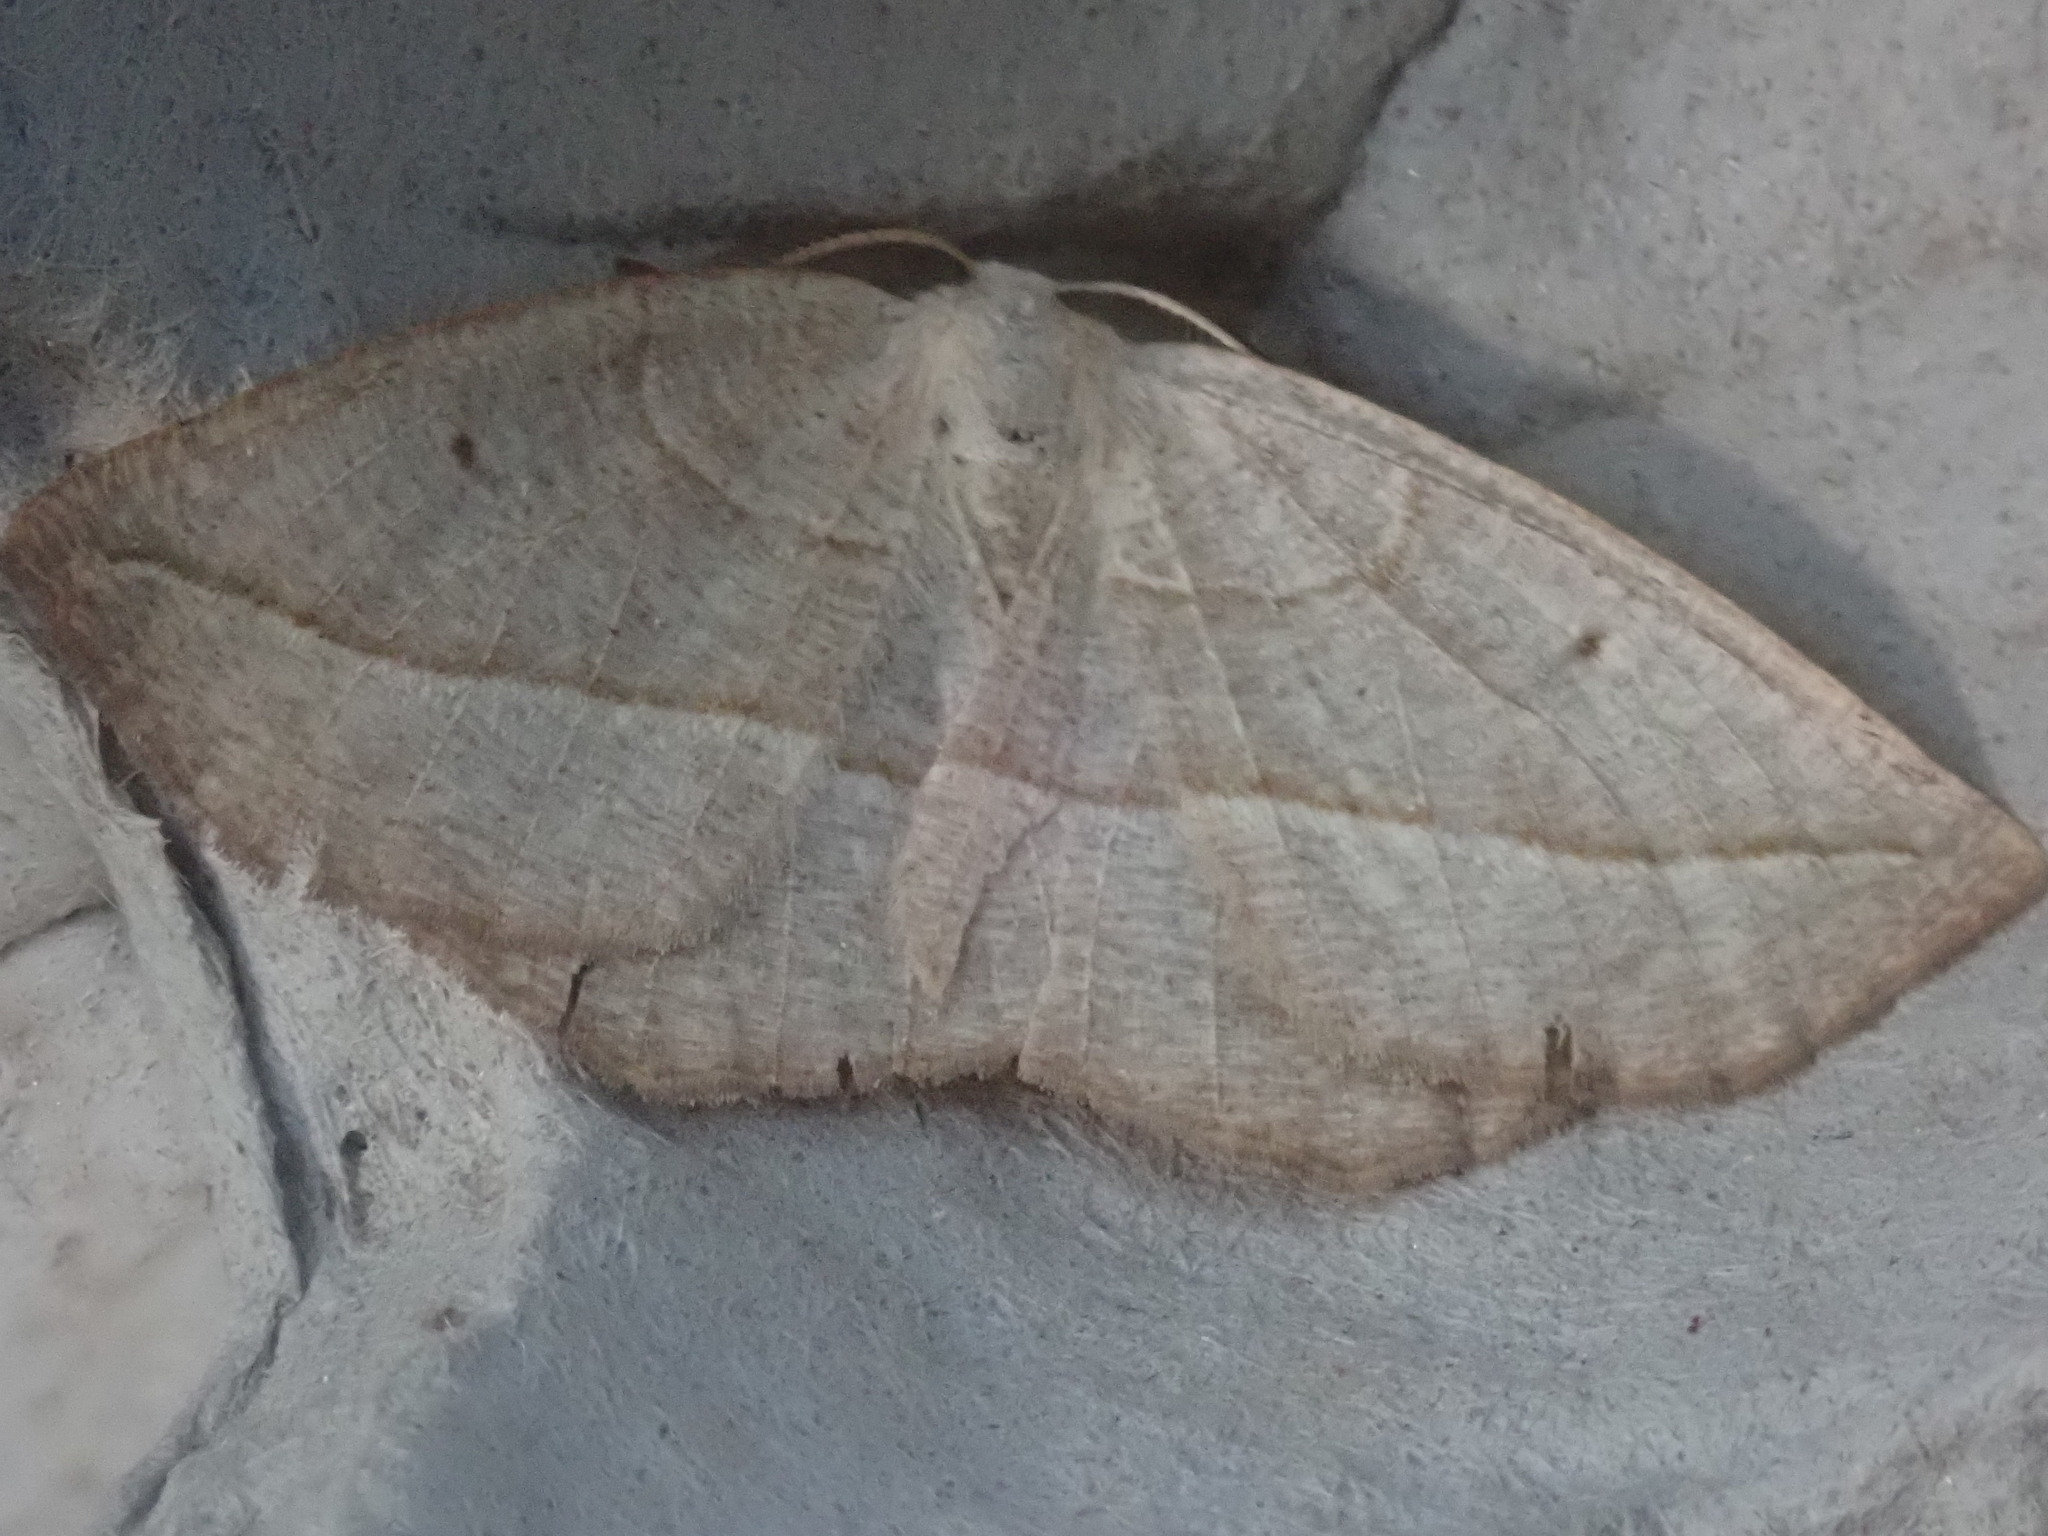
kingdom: Animalia
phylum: Arthropoda
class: Insecta
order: Lepidoptera
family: Geometridae
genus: Eusarca
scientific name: Eusarca confusaria
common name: Confused eusarca
